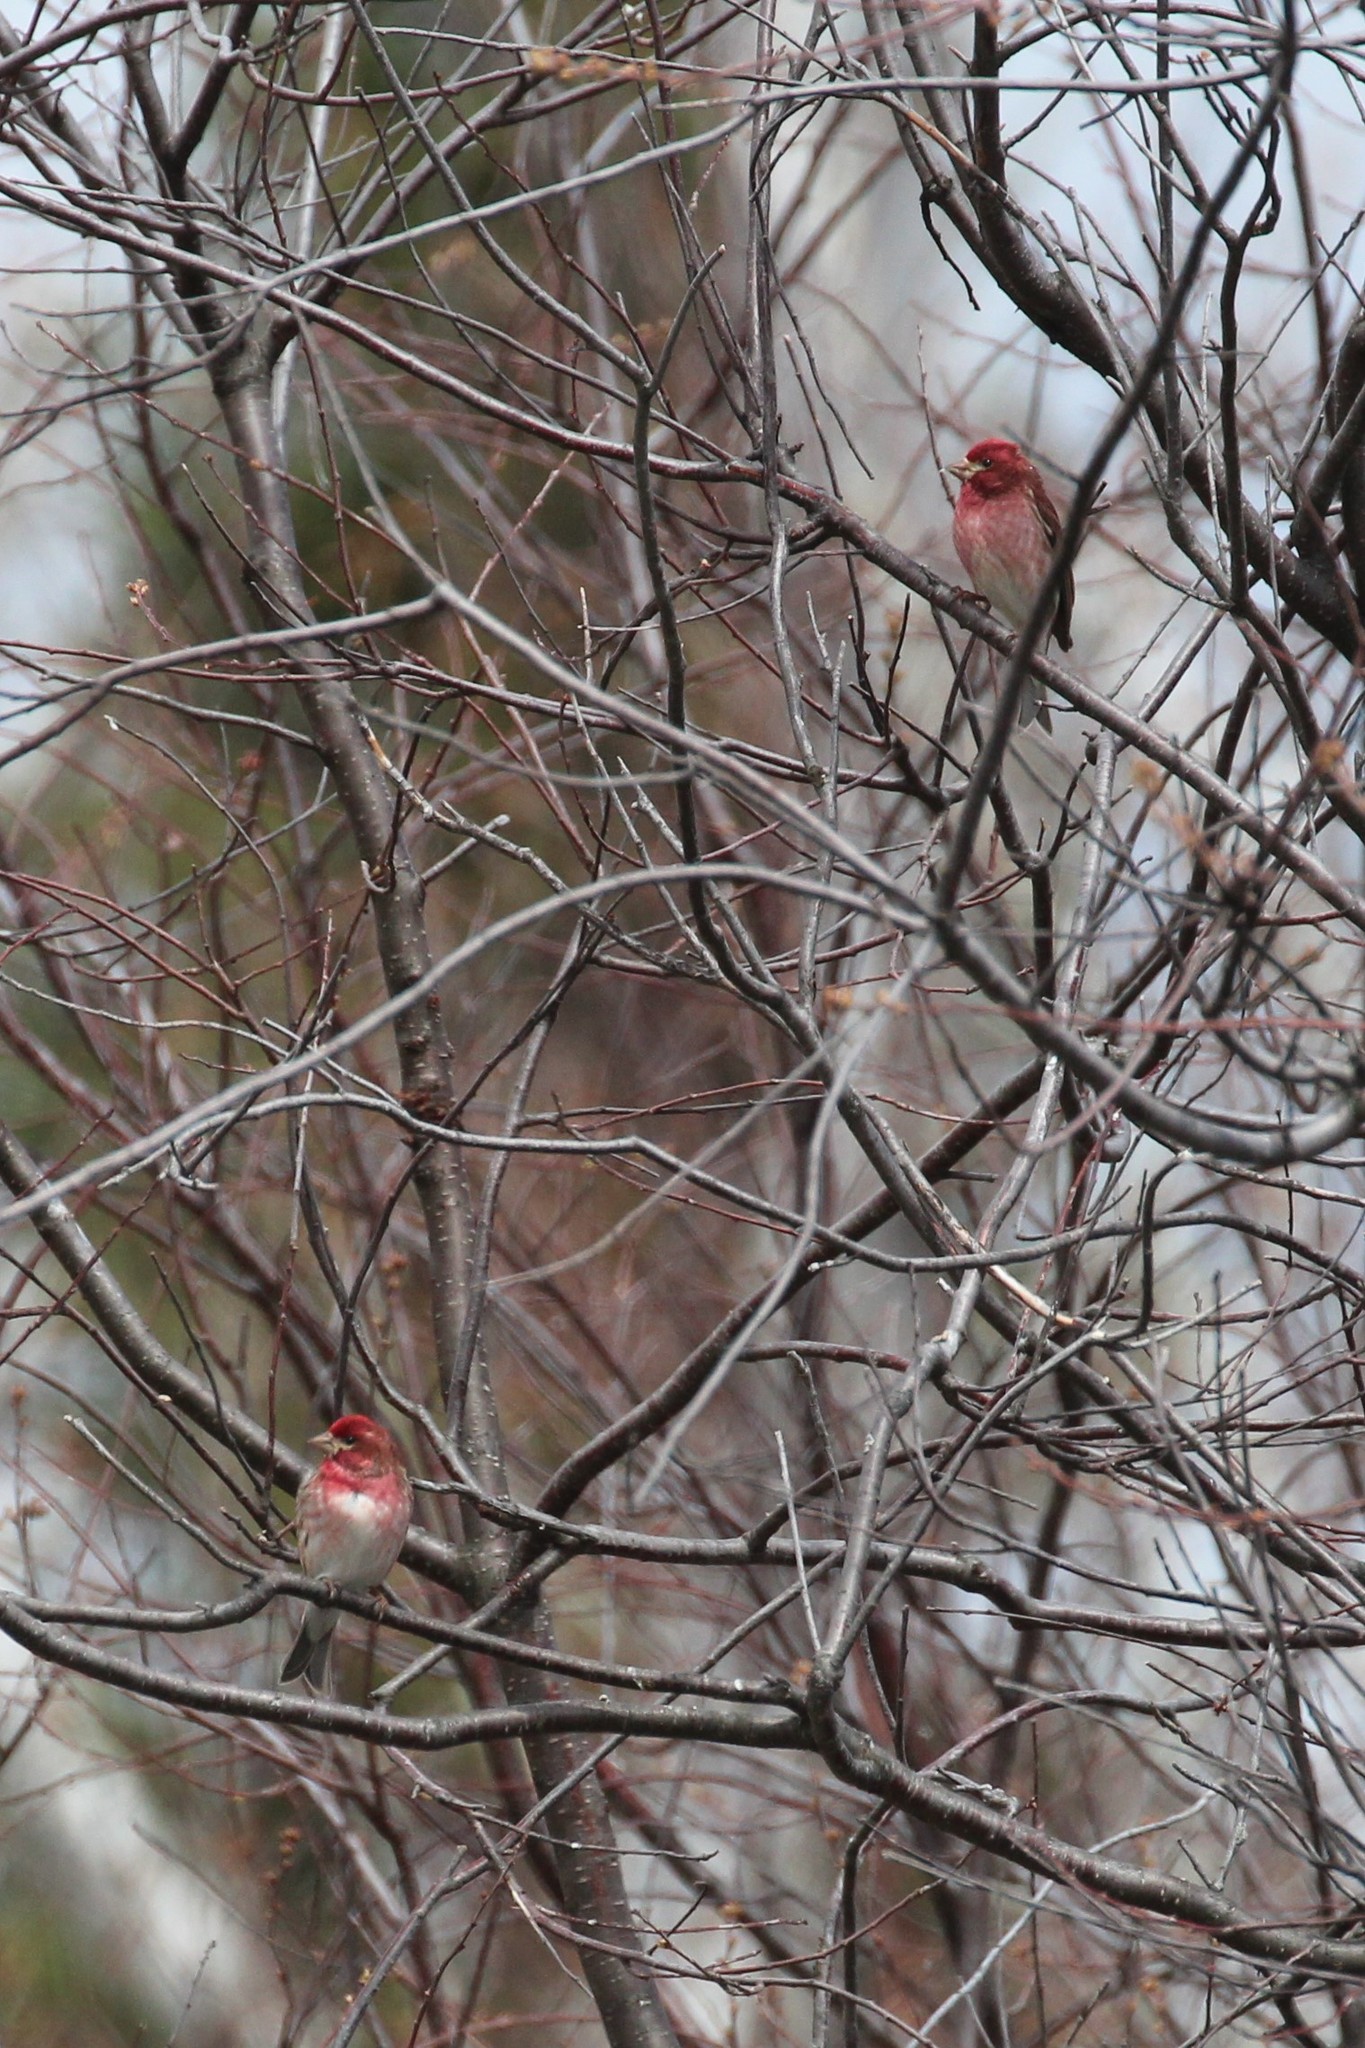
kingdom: Animalia
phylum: Chordata
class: Aves
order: Passeriformes
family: Fringillidae
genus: Haemorhous
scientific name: Haemorhous purpureus
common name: Purple finch
